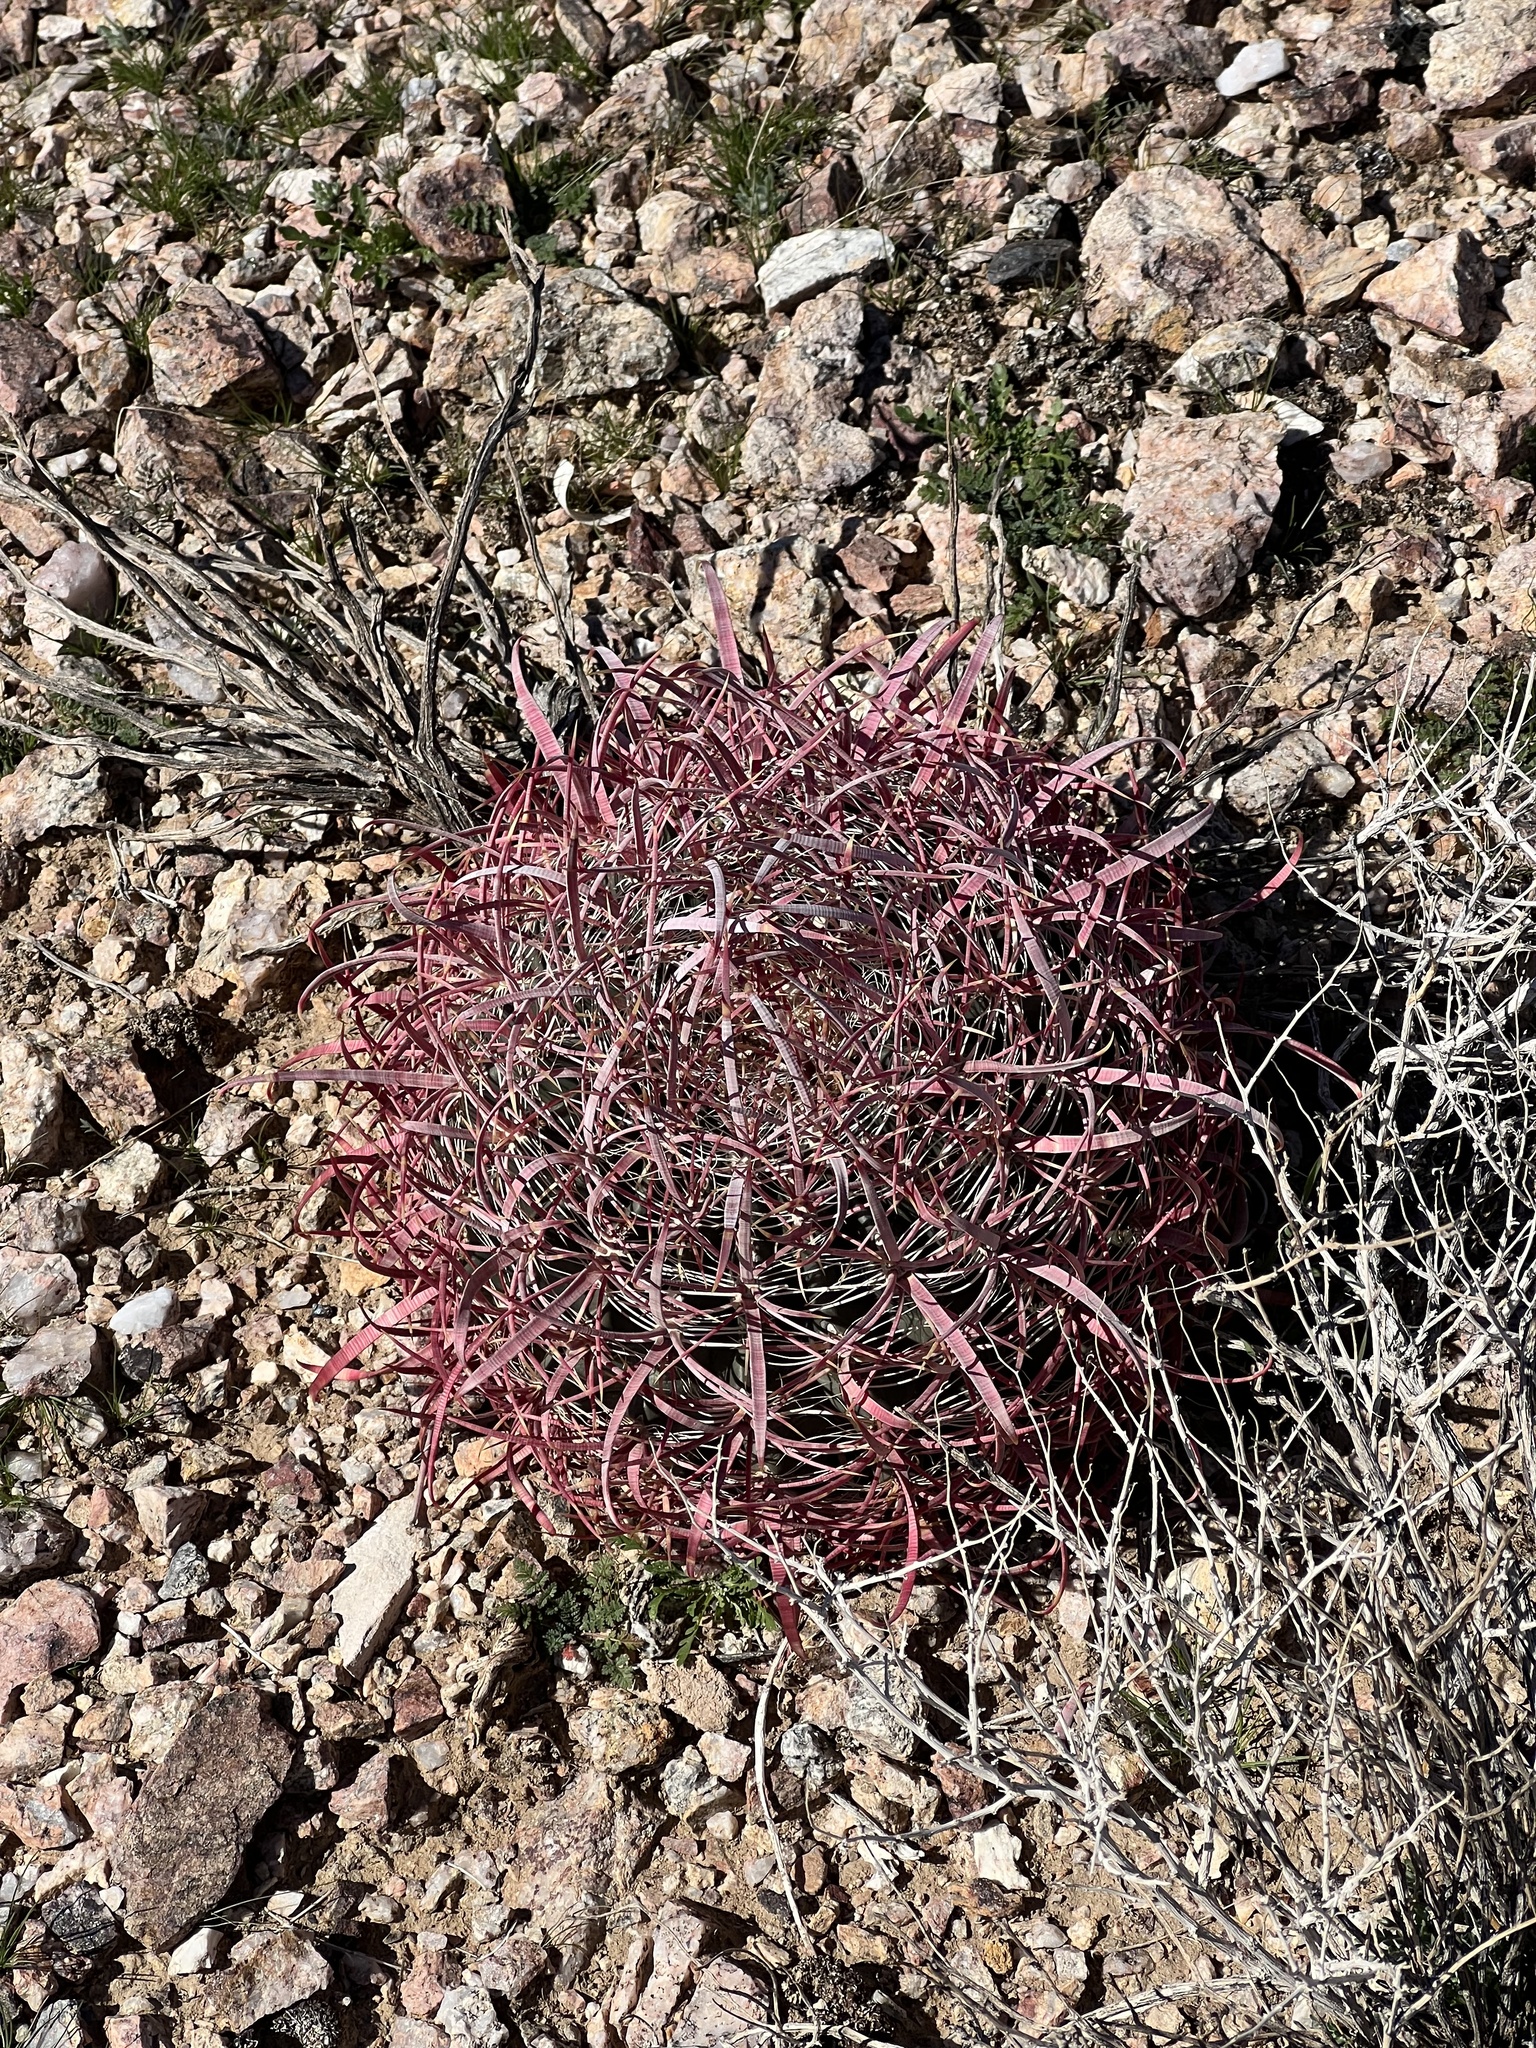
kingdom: Plantae
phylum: Tracheophyta
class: Magnoliopsida
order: Caryophyllales
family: Cactaceae
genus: Ferocactus
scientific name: Ferocactus cylindraceus
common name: California barrel cactus
